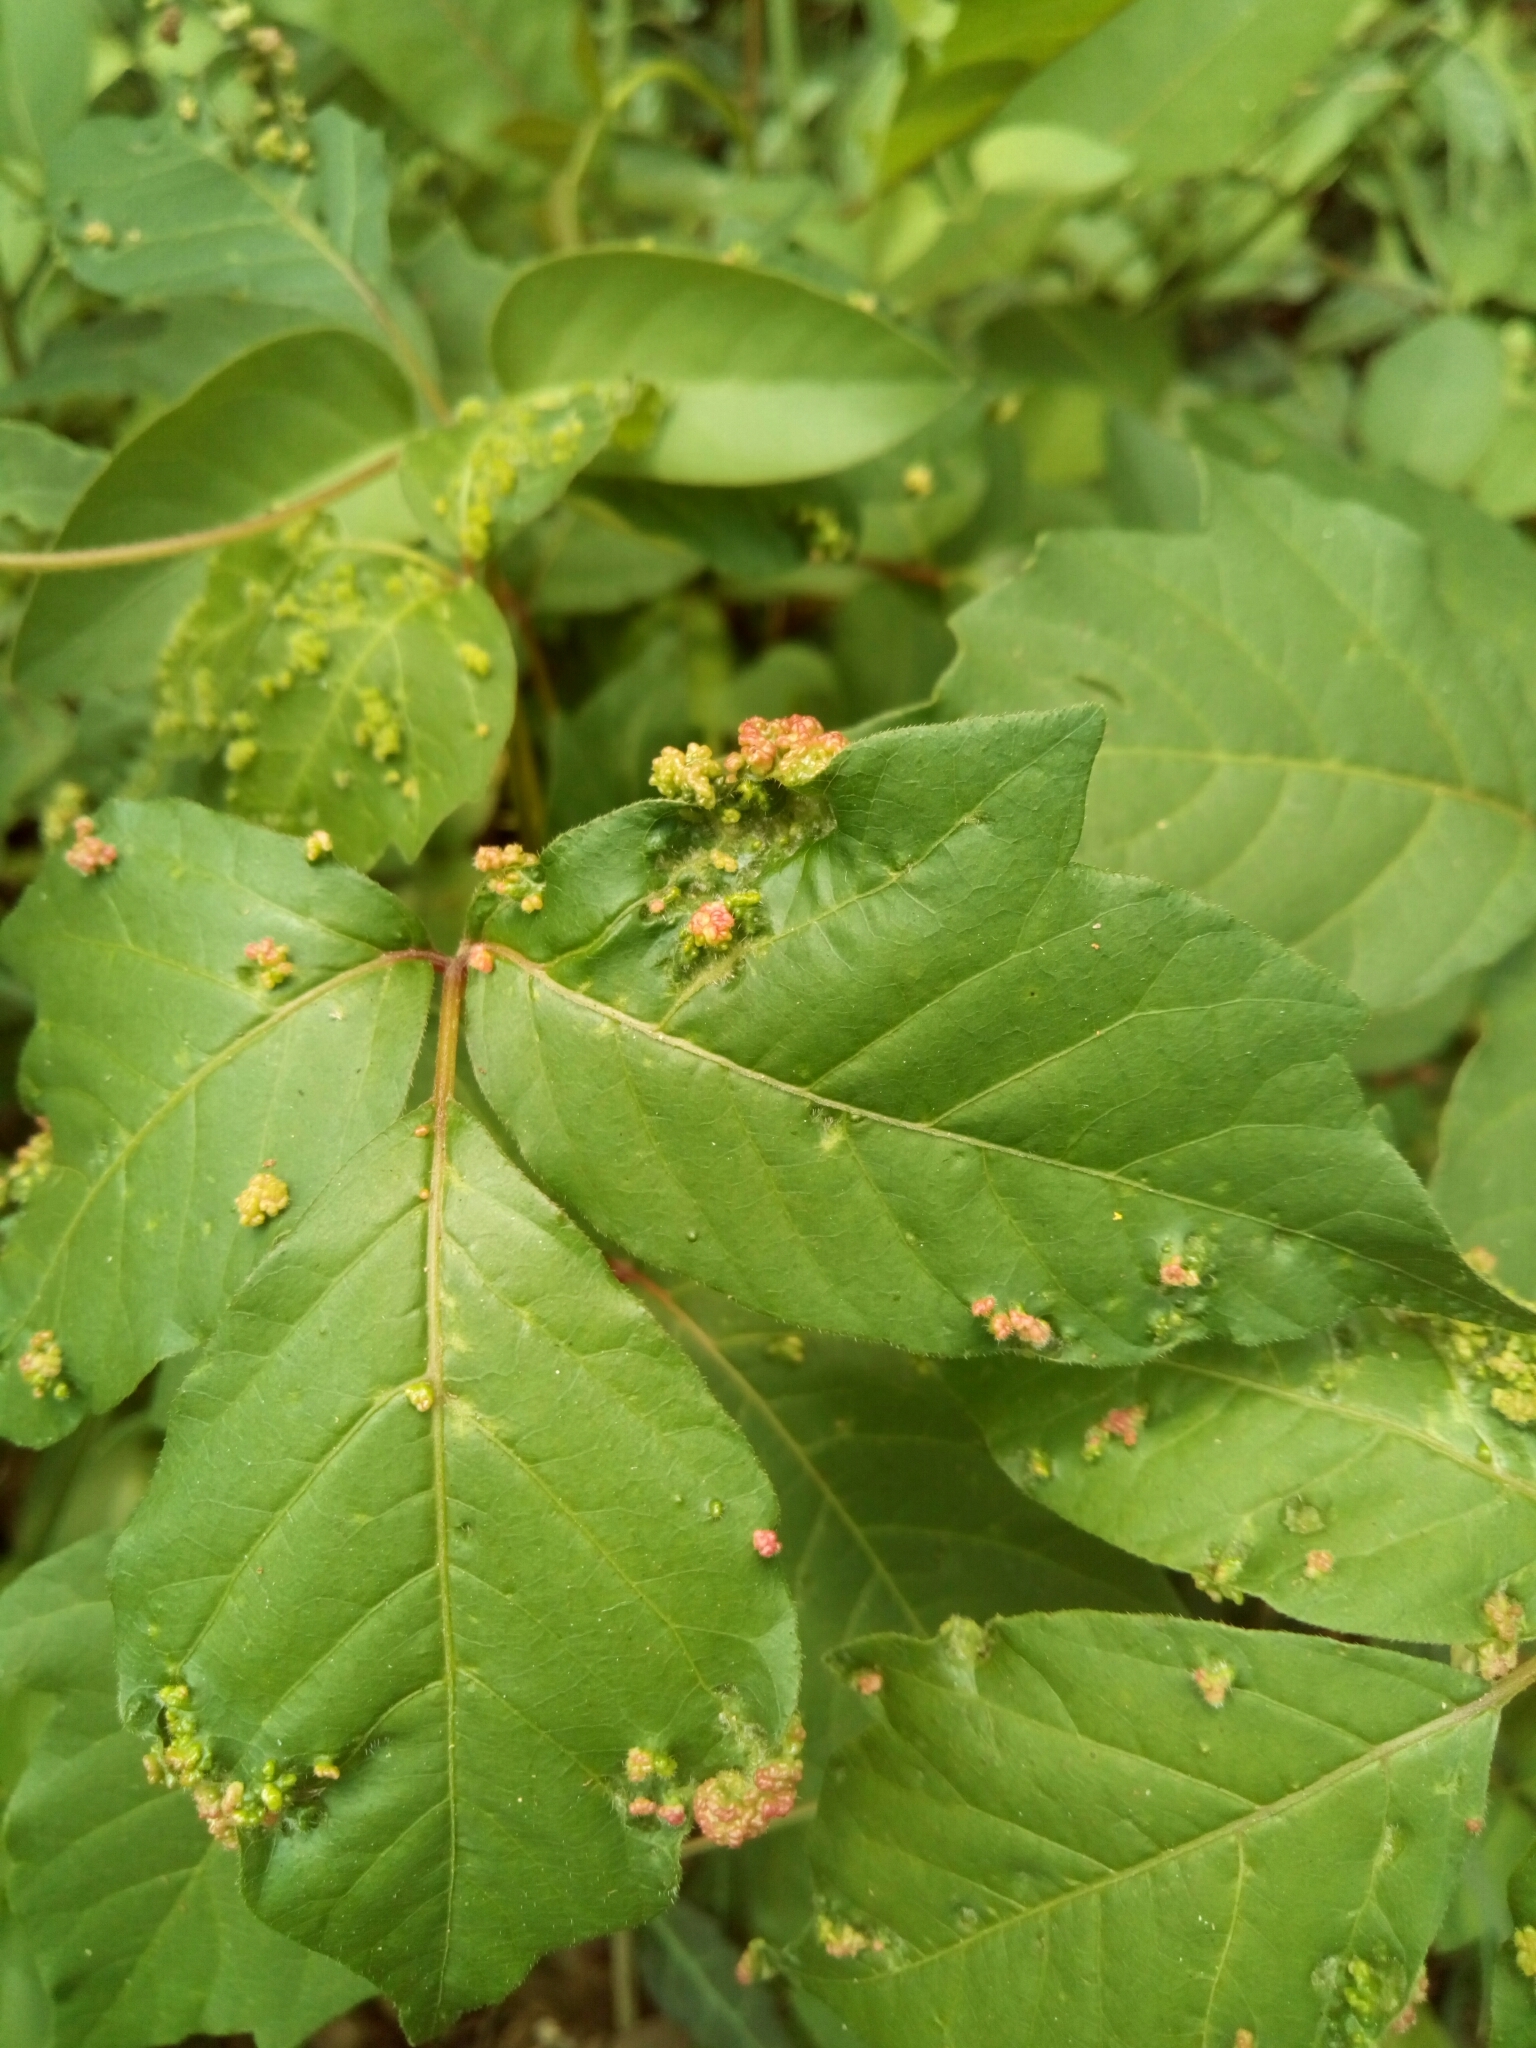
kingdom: Animalia
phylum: Arthropoda
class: Arachnida
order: Trombidiformes
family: Eriophyidae
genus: Aculops
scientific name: Aculops
